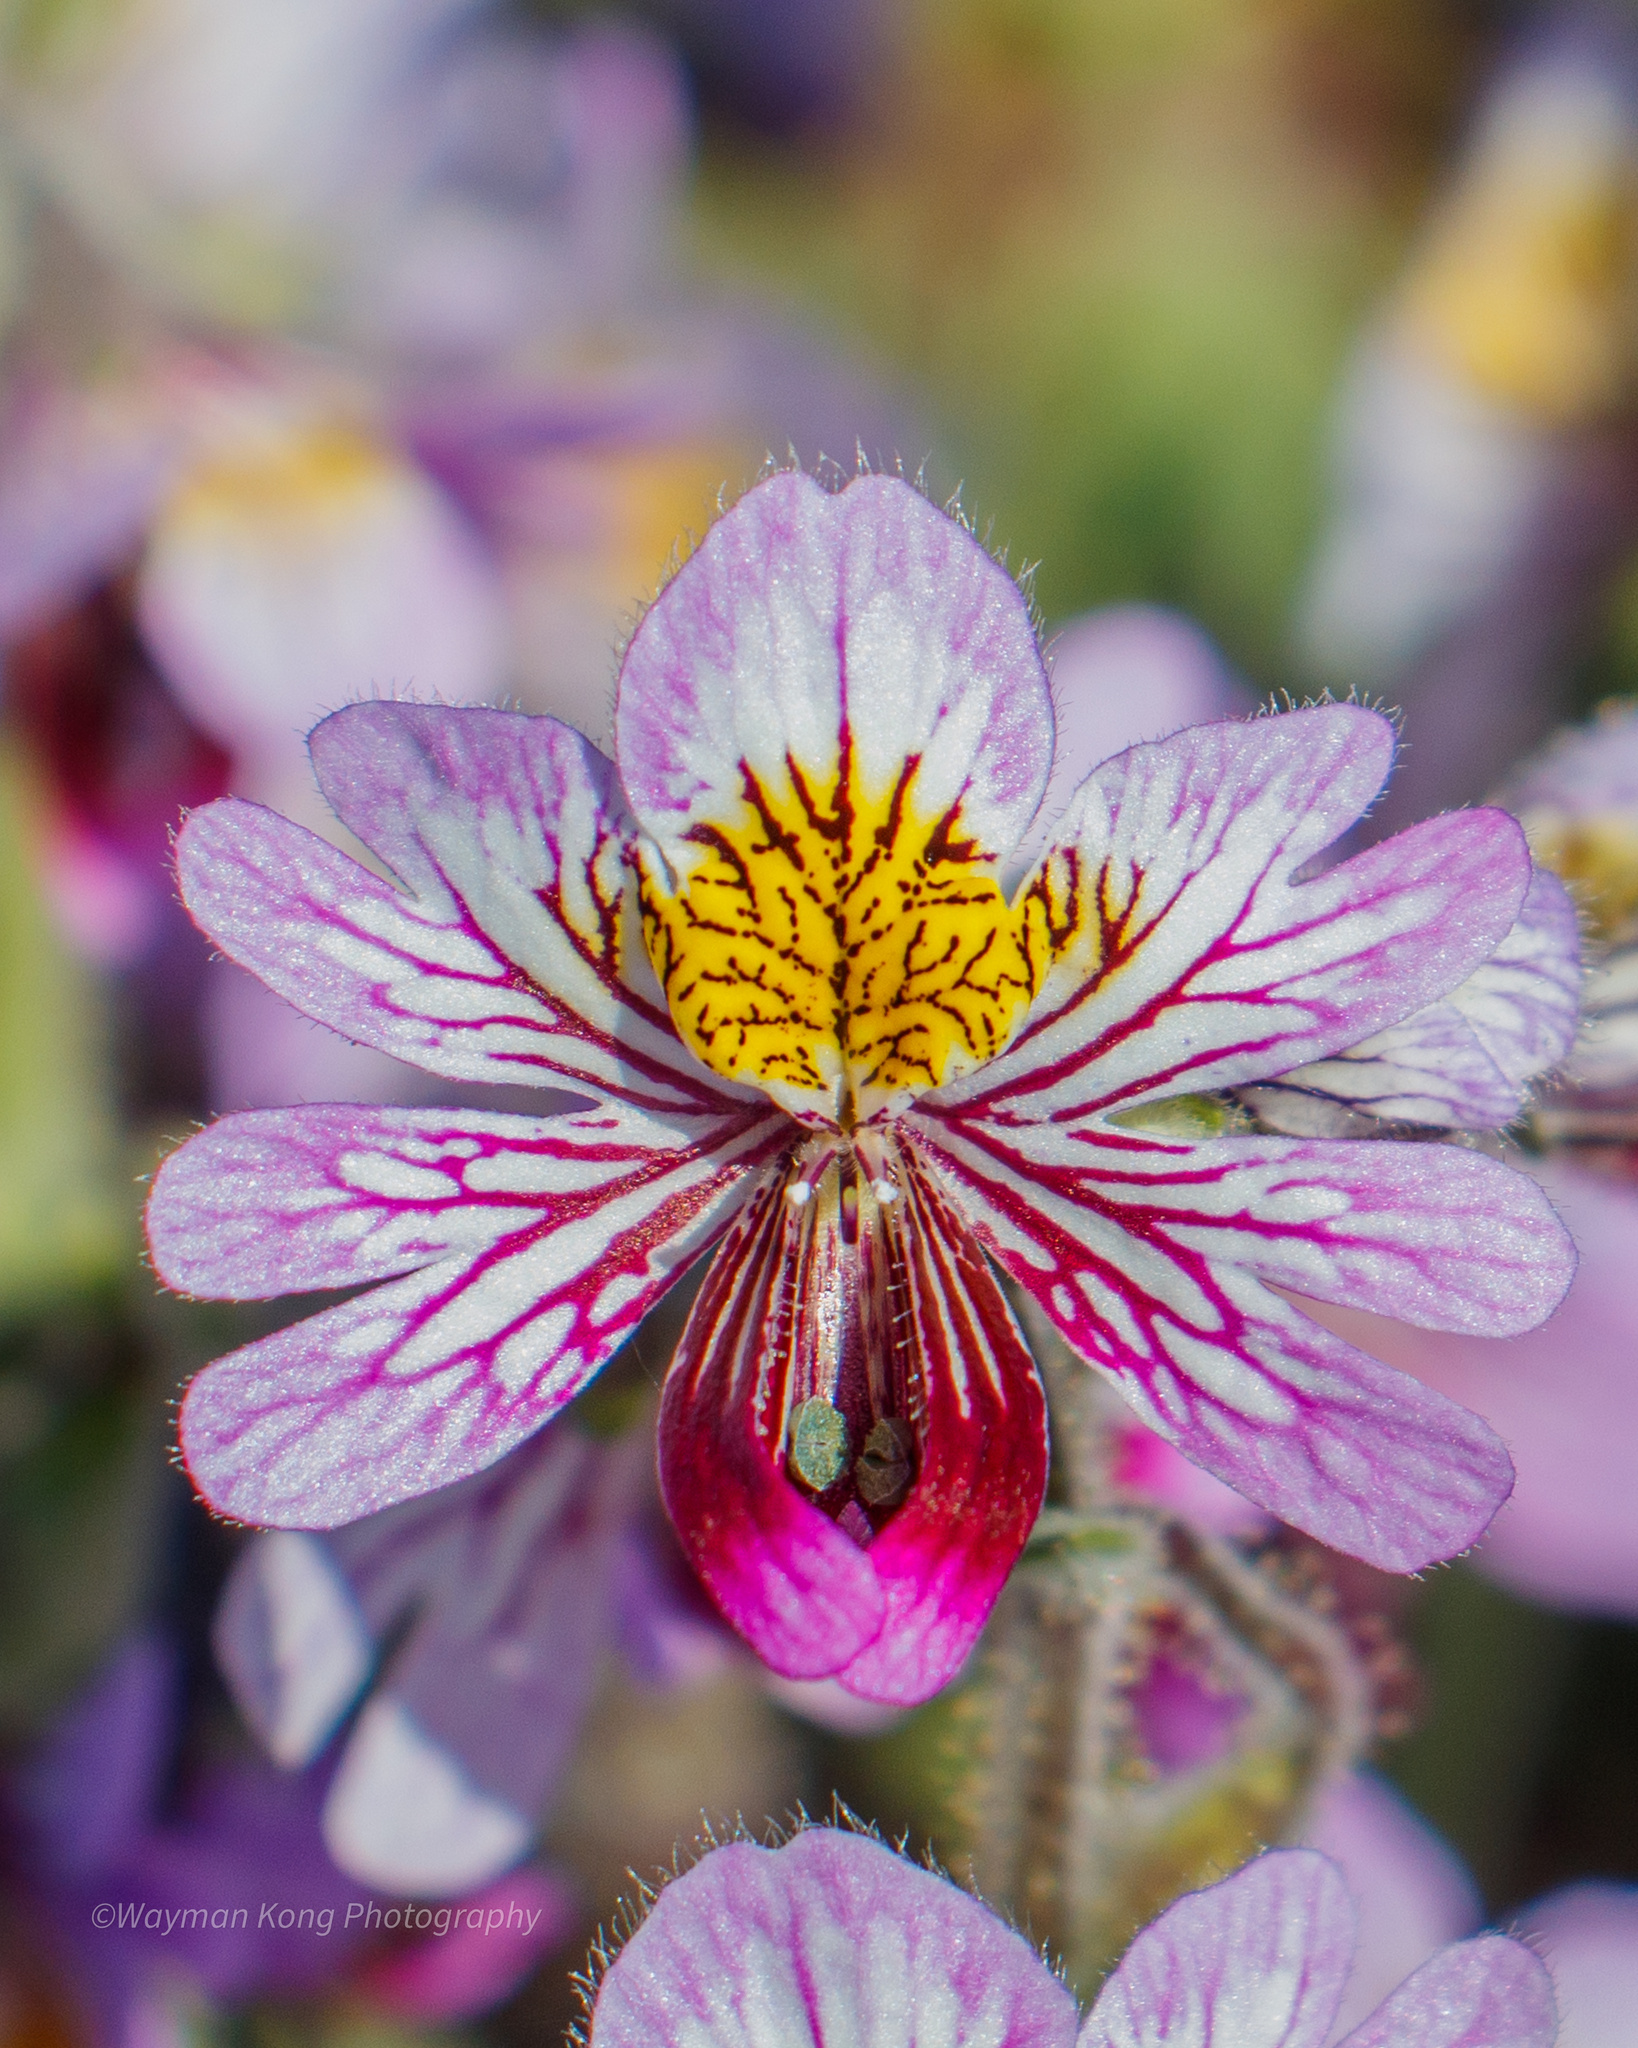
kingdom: Plantae
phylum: Tracheophyta
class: Magnoliopsida
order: Solanales
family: Solanaceae
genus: Schizanthus
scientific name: Schizanthus litoralis
